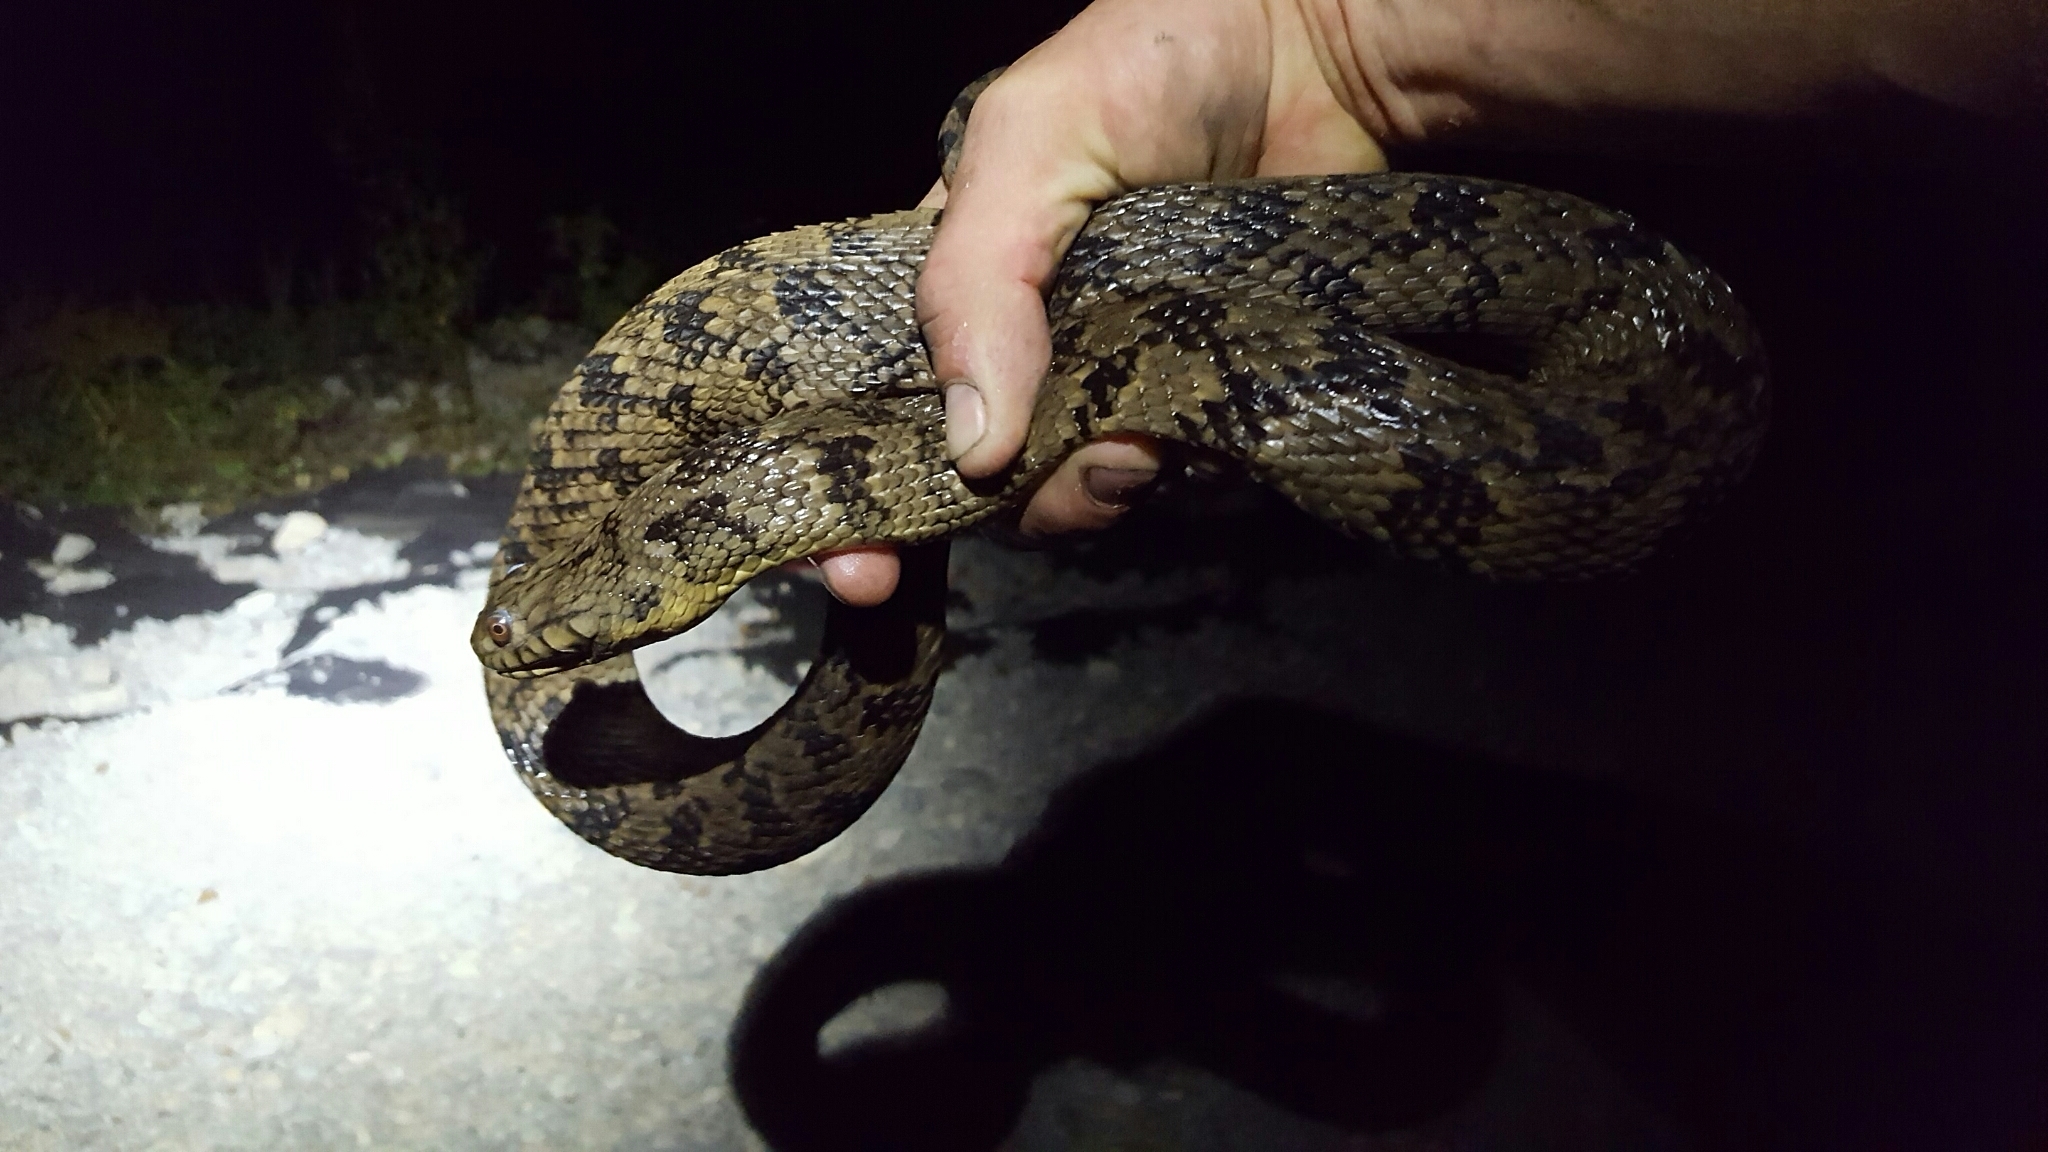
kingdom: Animalia
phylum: Chordata
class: Squamata
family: Colubridae
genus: Nerodia
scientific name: Nerodia rhombifer
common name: Diamondback water snake
